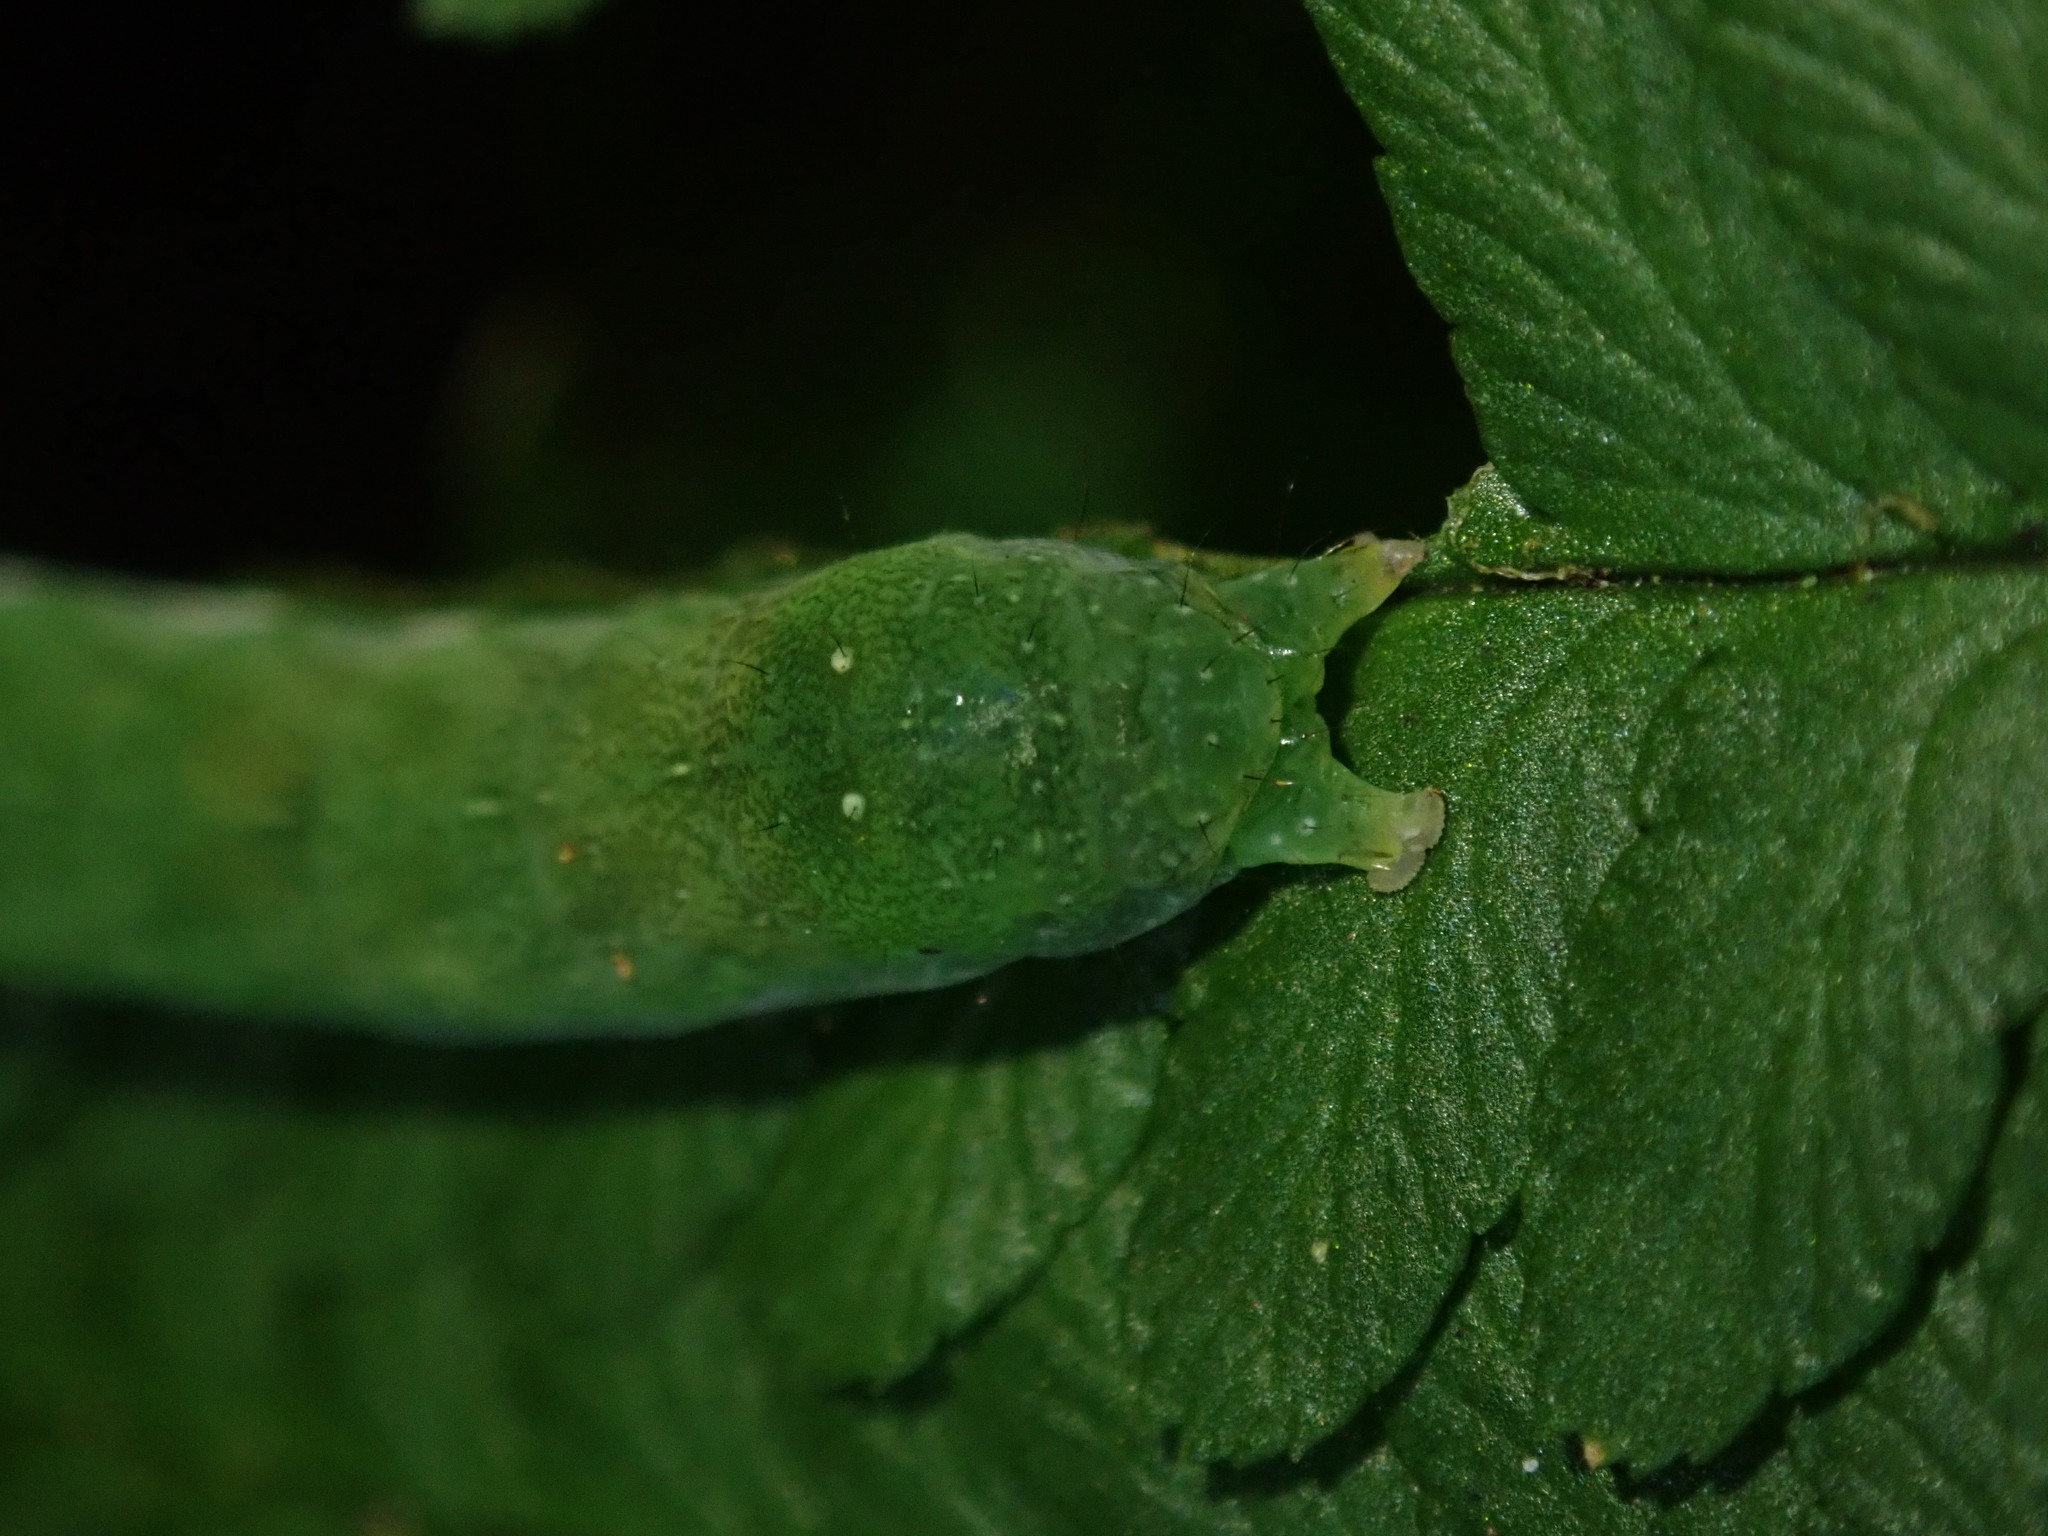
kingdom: Animalia
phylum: Arthropoda
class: Insecta
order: Lepidoptera
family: Noctuidae
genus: Euplexia
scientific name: Euplexia lucipara
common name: Small angle shades
